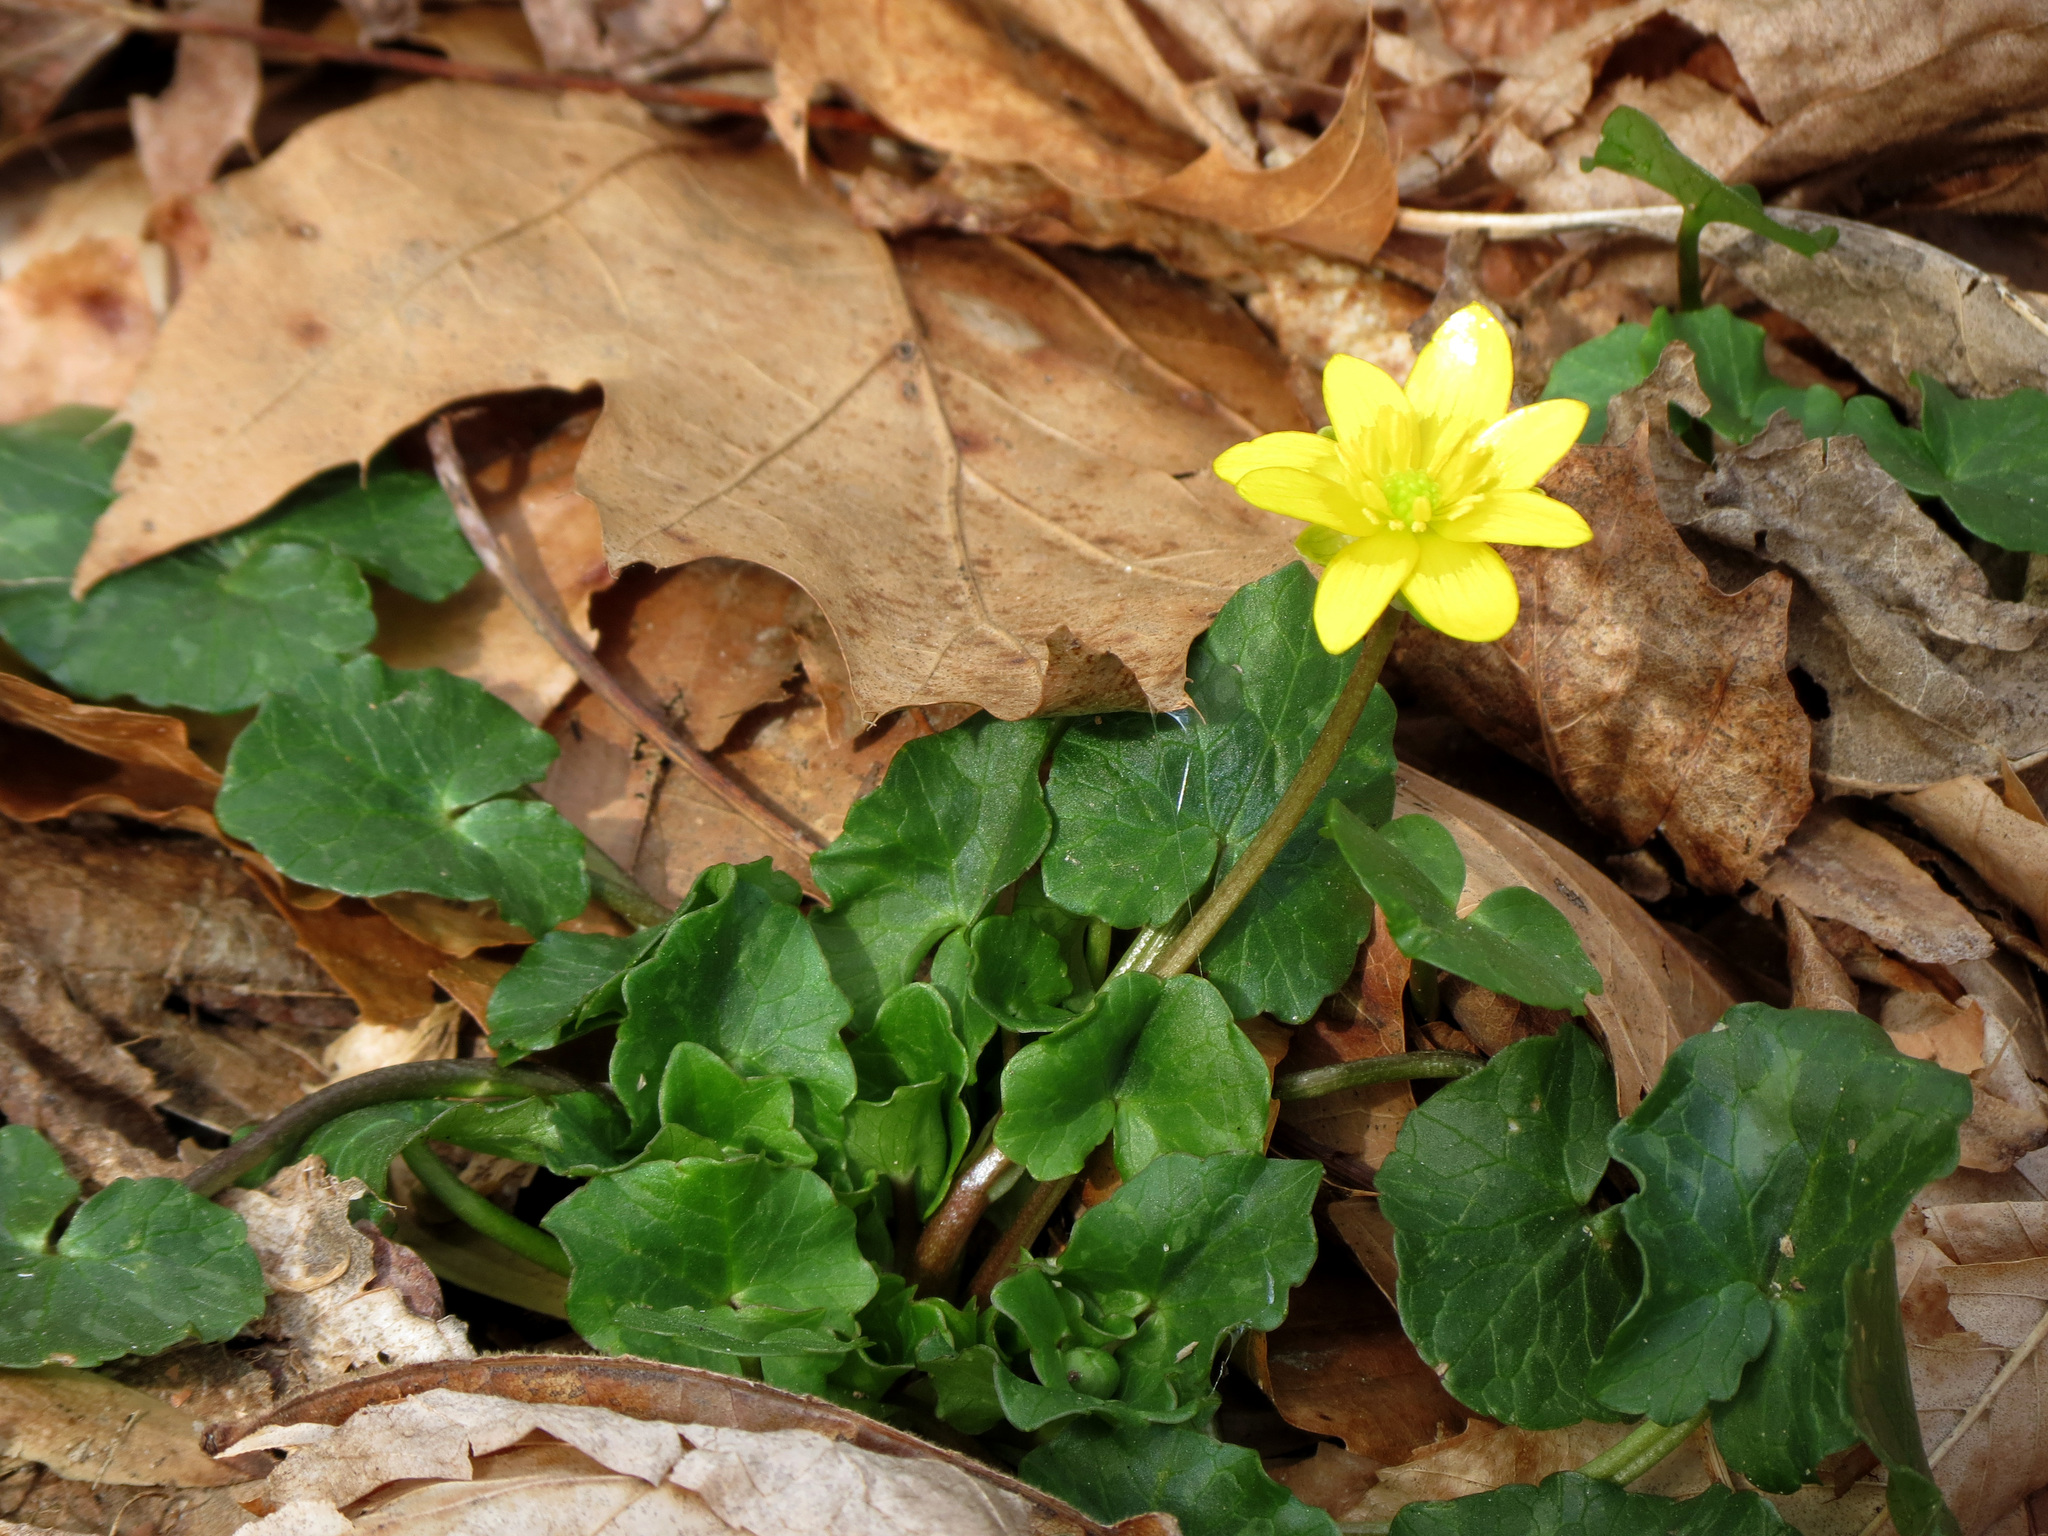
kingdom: Plantae
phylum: Tracheophyta
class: Magnoliopsida
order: Ranunculales
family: Ranunculaceae
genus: Ficaria
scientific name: Ficaria verna
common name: Lesser celandine
